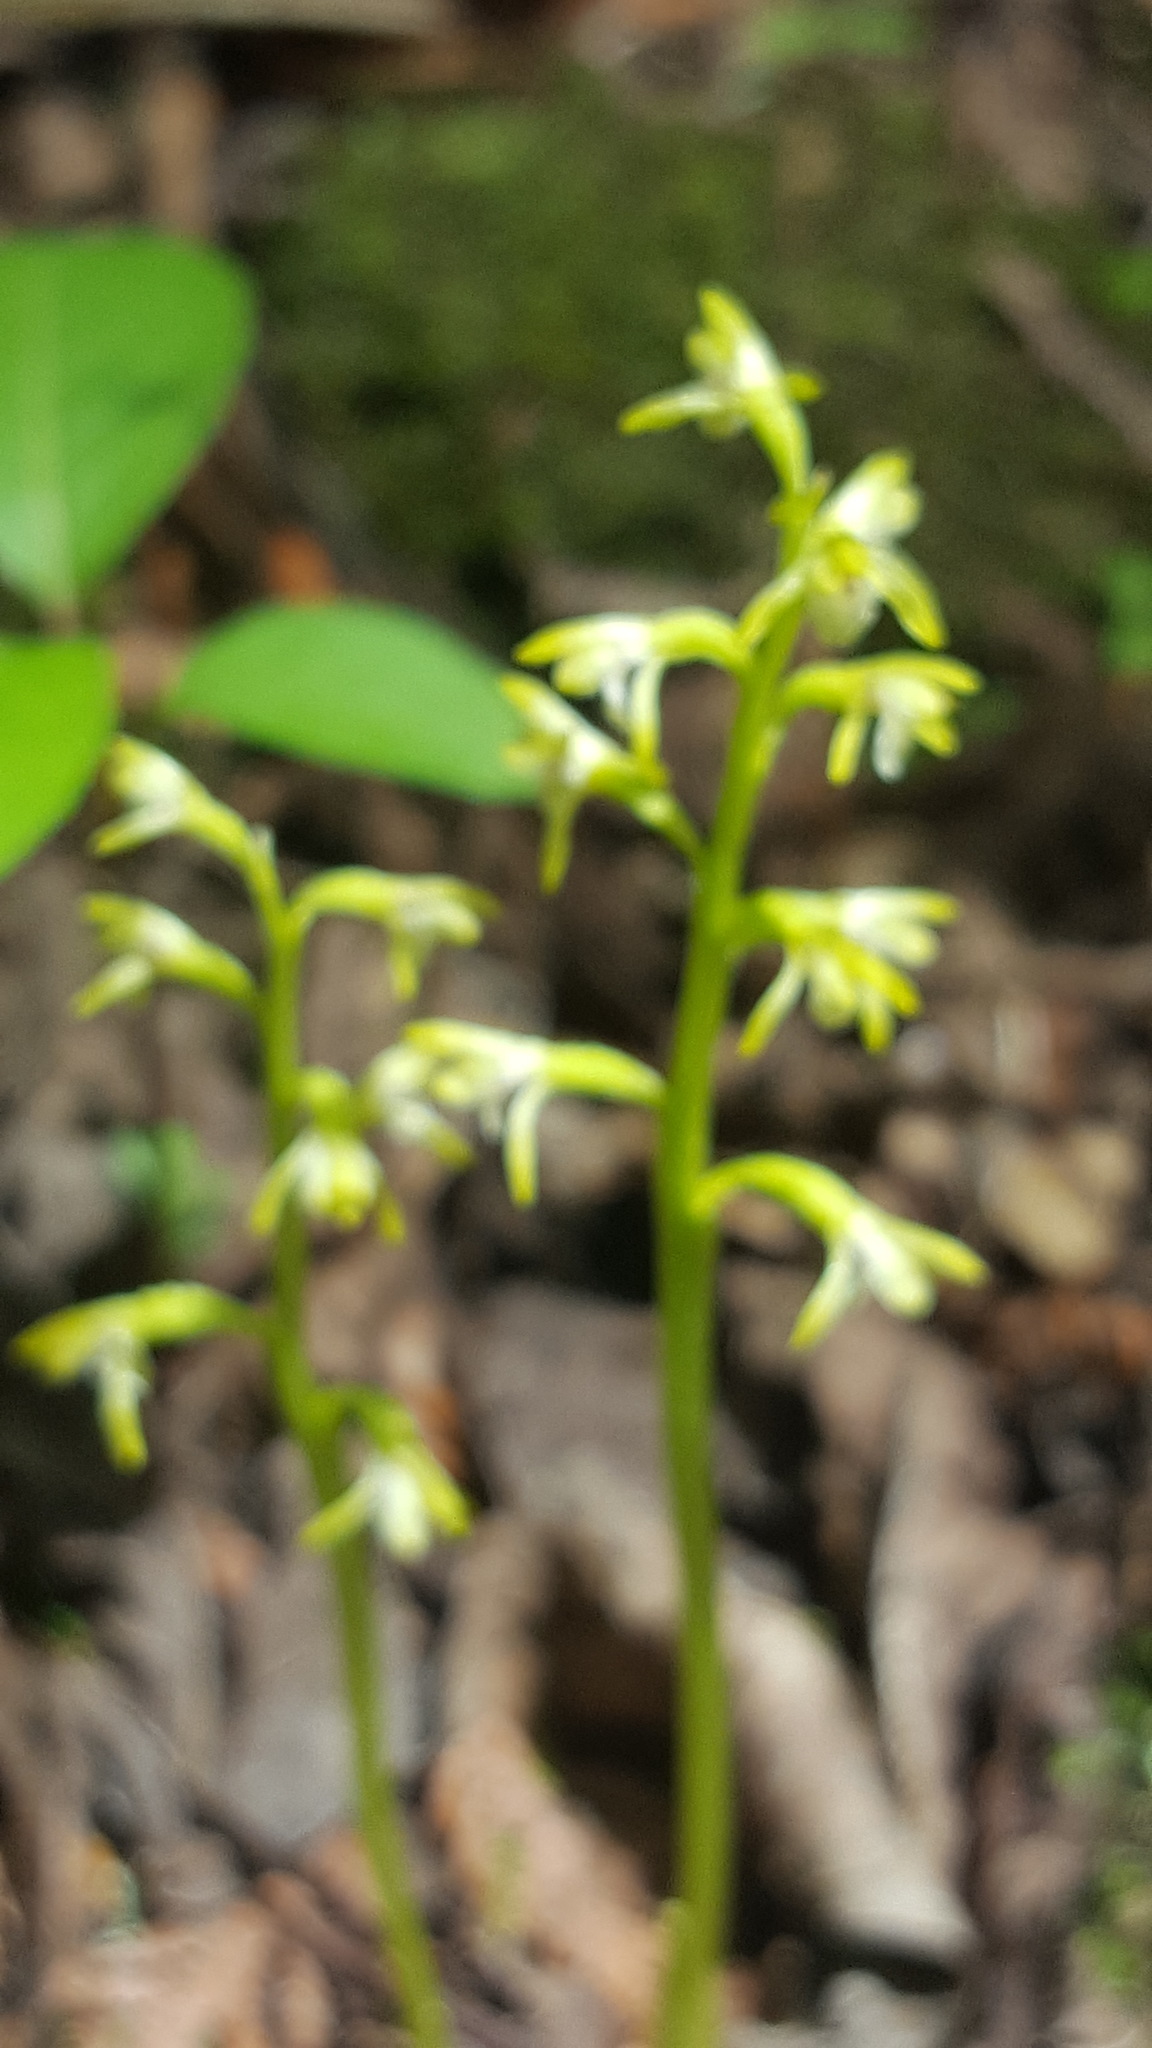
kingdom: Plantae
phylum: Tracheophyta
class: Liliopsida
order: Asparagales
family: Orchidaceae
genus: Corallorhiza
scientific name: Corallorhiza trifida
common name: Yellow coralroot
